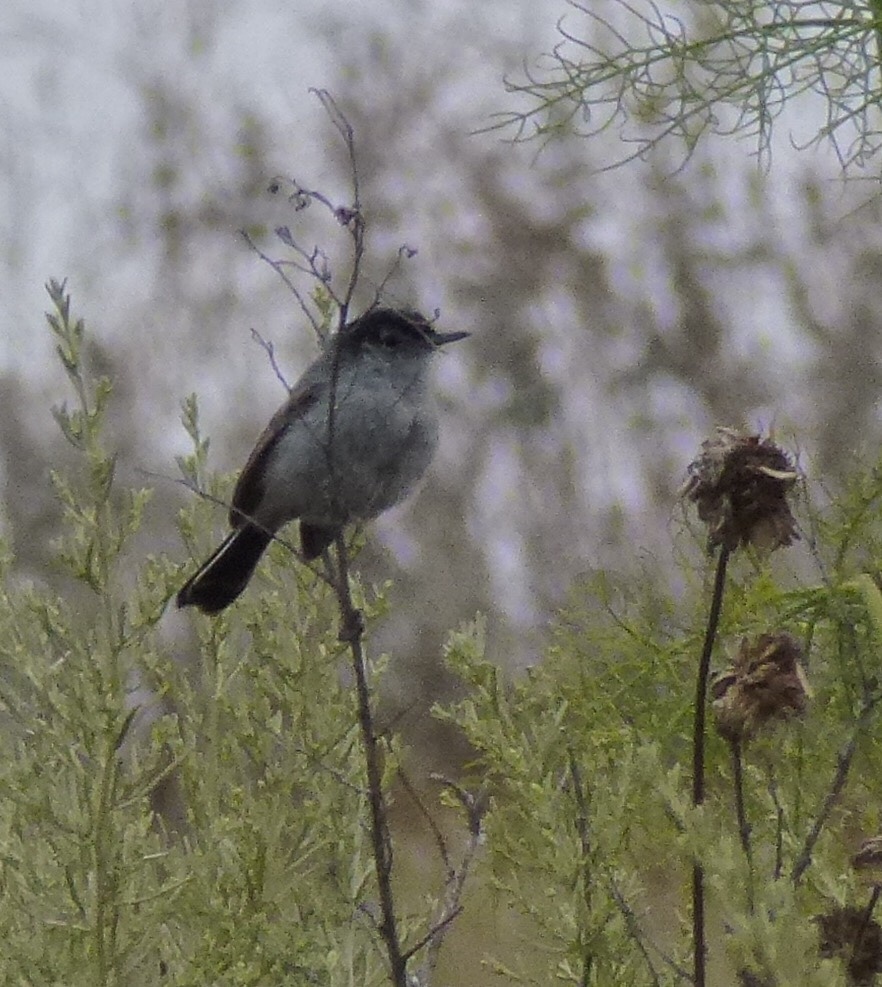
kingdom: Animalia
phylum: Chordata
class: Aves
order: Passeriformes
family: Polioptilidae
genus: Polioptila
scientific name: Polioptila californica
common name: California gnatcatcher
